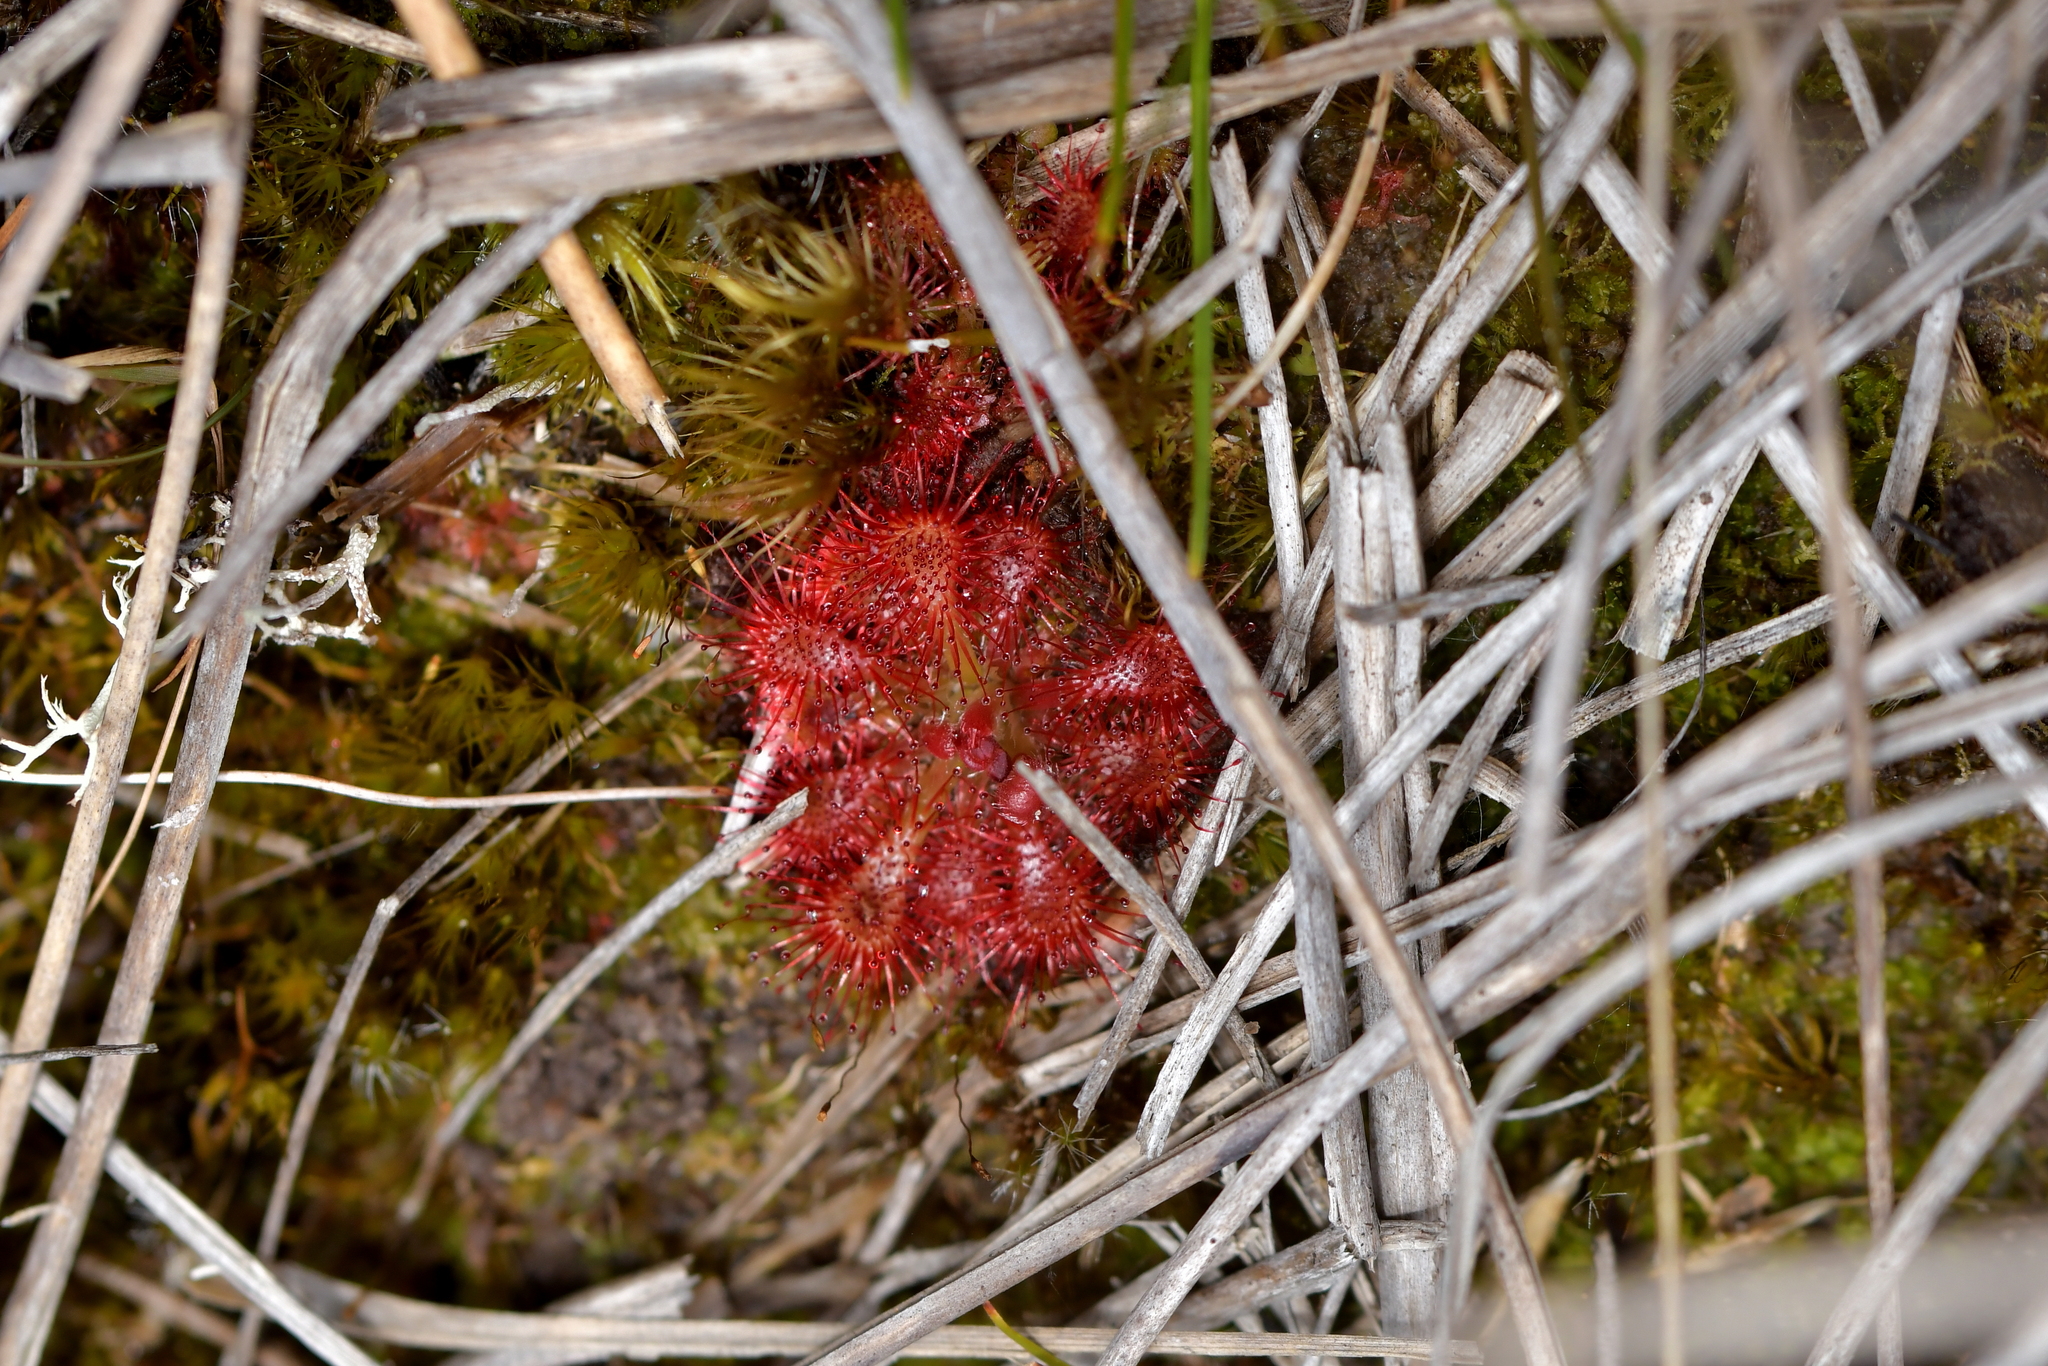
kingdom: Plantae
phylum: Tracheophyta
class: Magnoliopsida
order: Caryophyllales
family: Droseraceae
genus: Drosera
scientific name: Drosera spatulata
